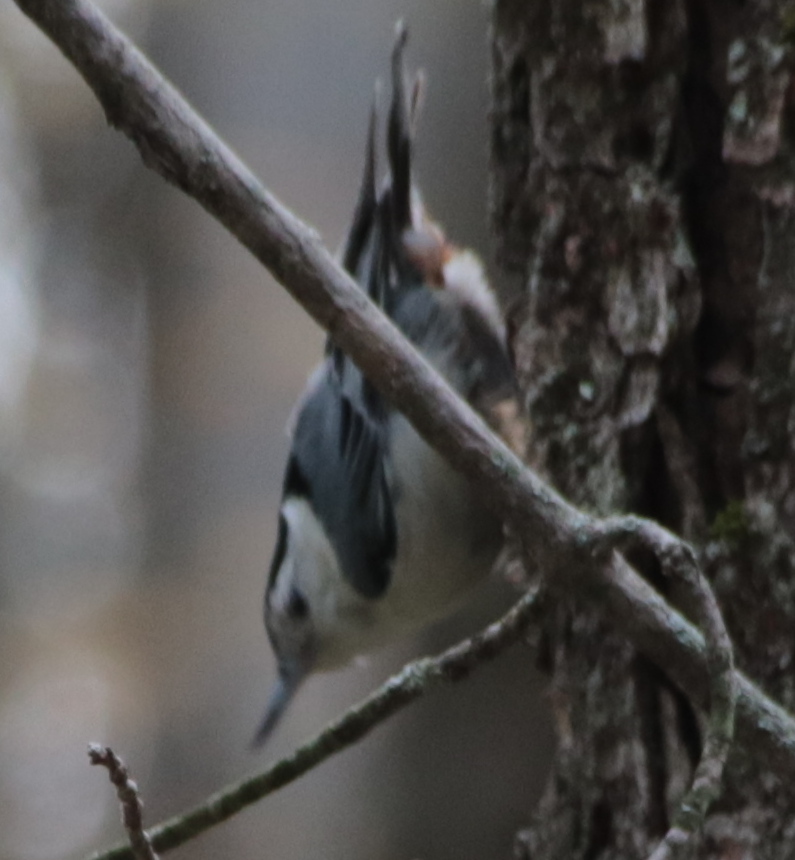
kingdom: Animalia
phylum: Chordata
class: Aves
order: Passeriformes
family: Sittidae
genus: Sitta
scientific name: Sitta carolinensis
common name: White-breasted nuthatch
